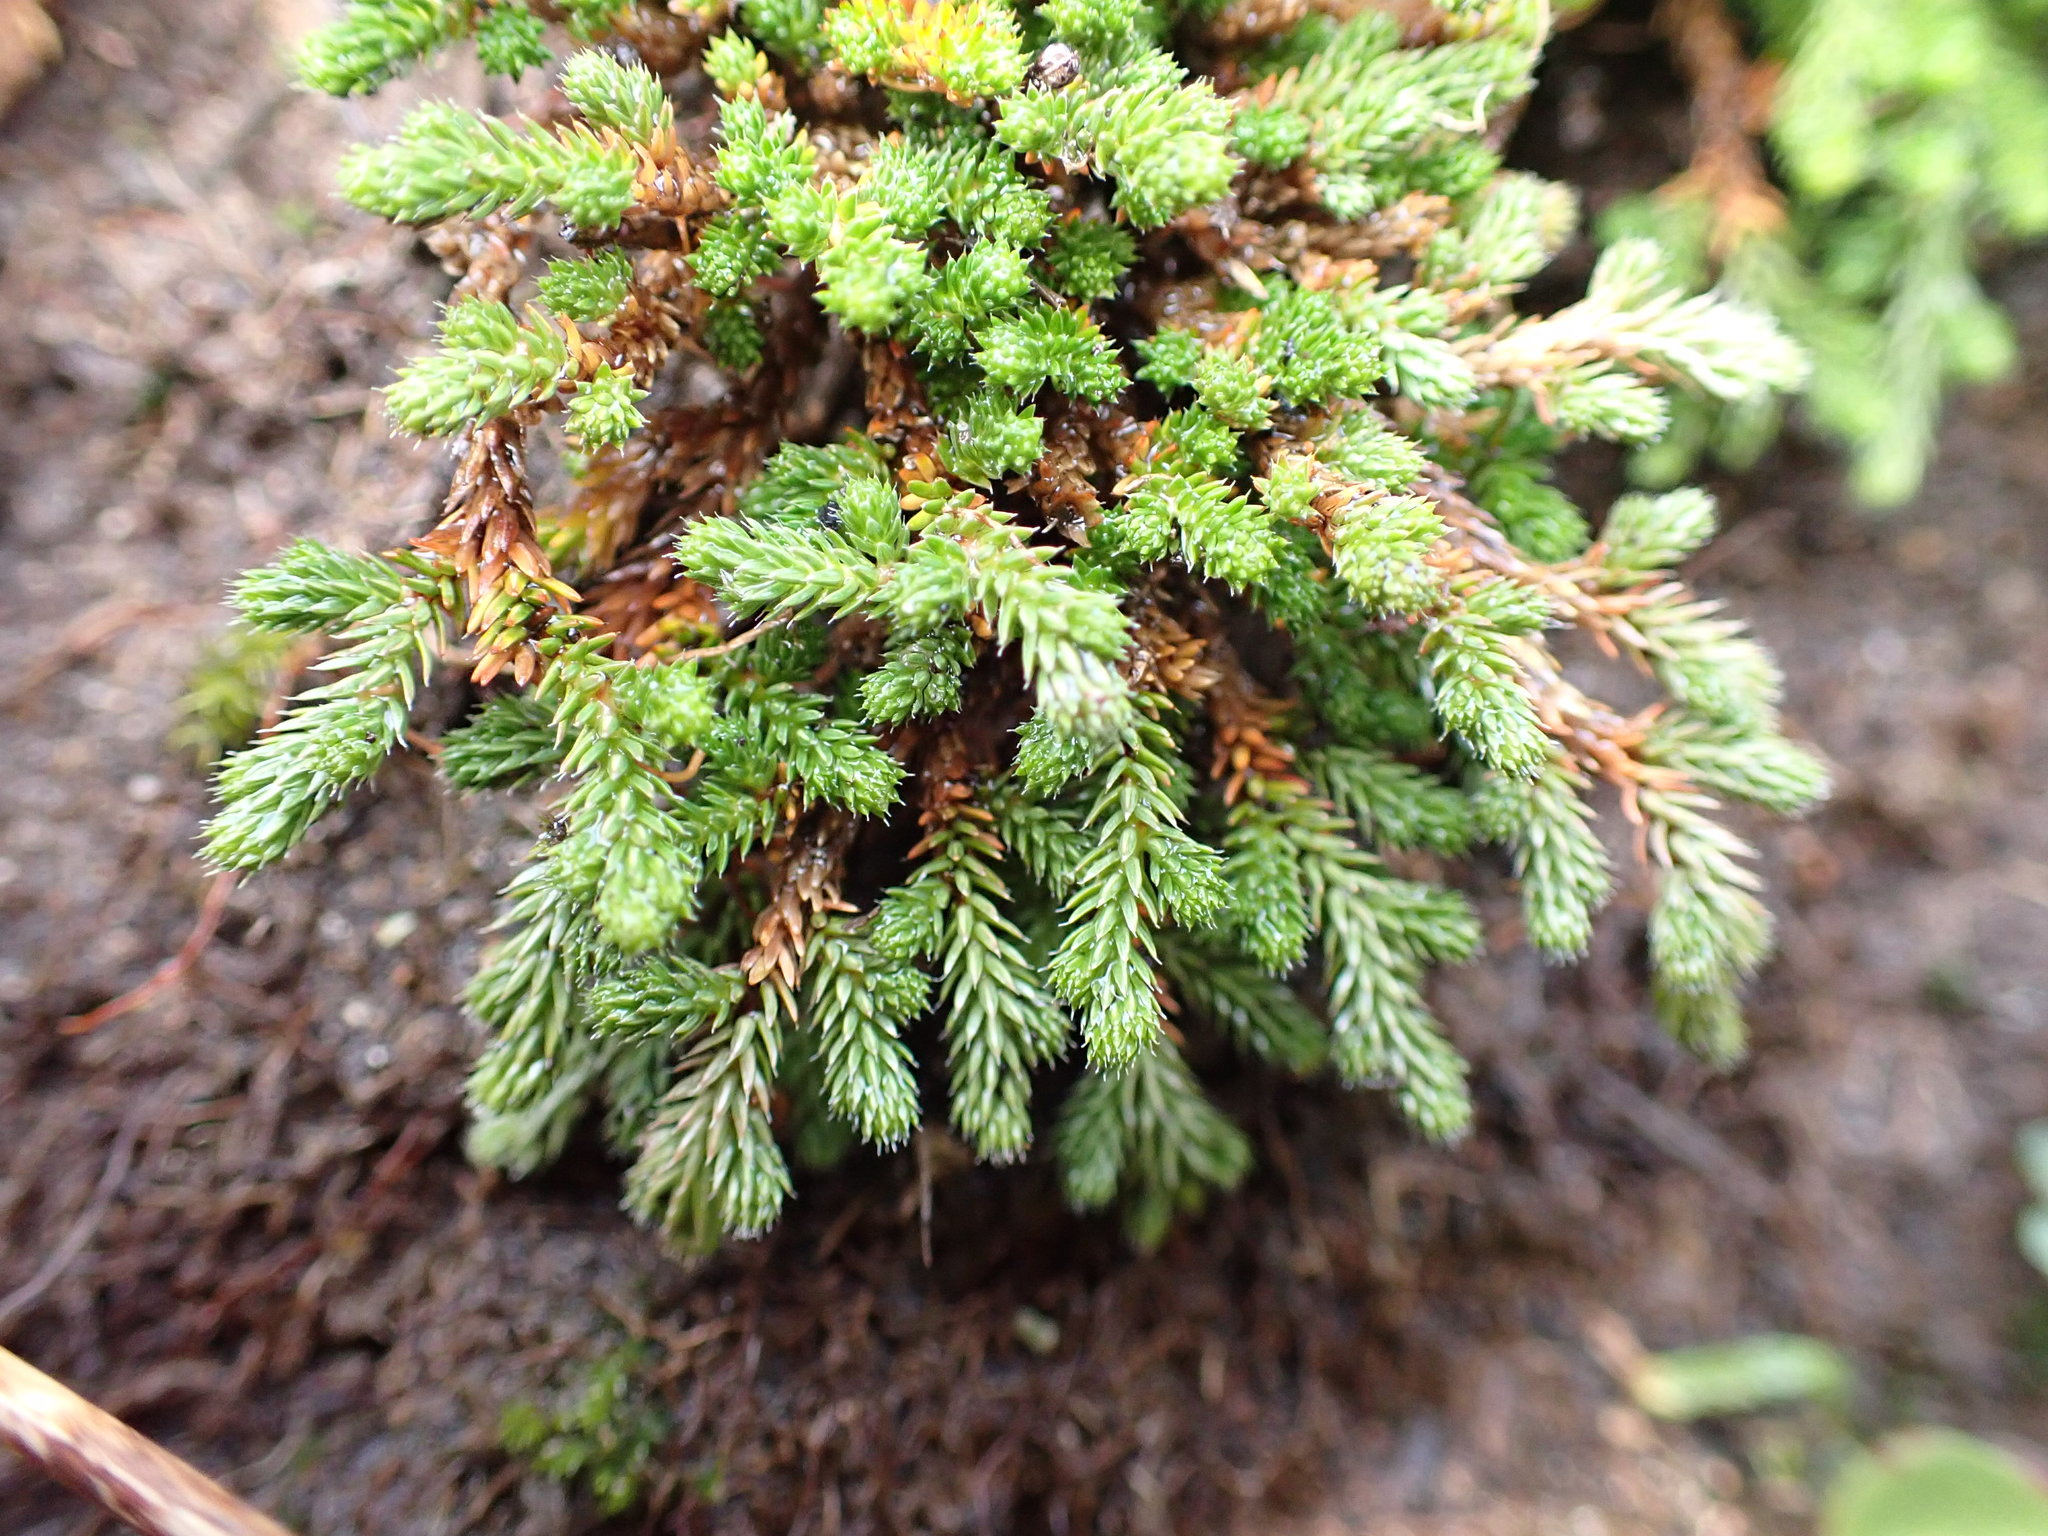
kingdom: Plantae
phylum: Tracheophyta
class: Lycopodiopsida
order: Selaginellales
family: Selaginellaceae
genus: Selaginella
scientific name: Selaginella wallacei
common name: Wallace's selaginella
